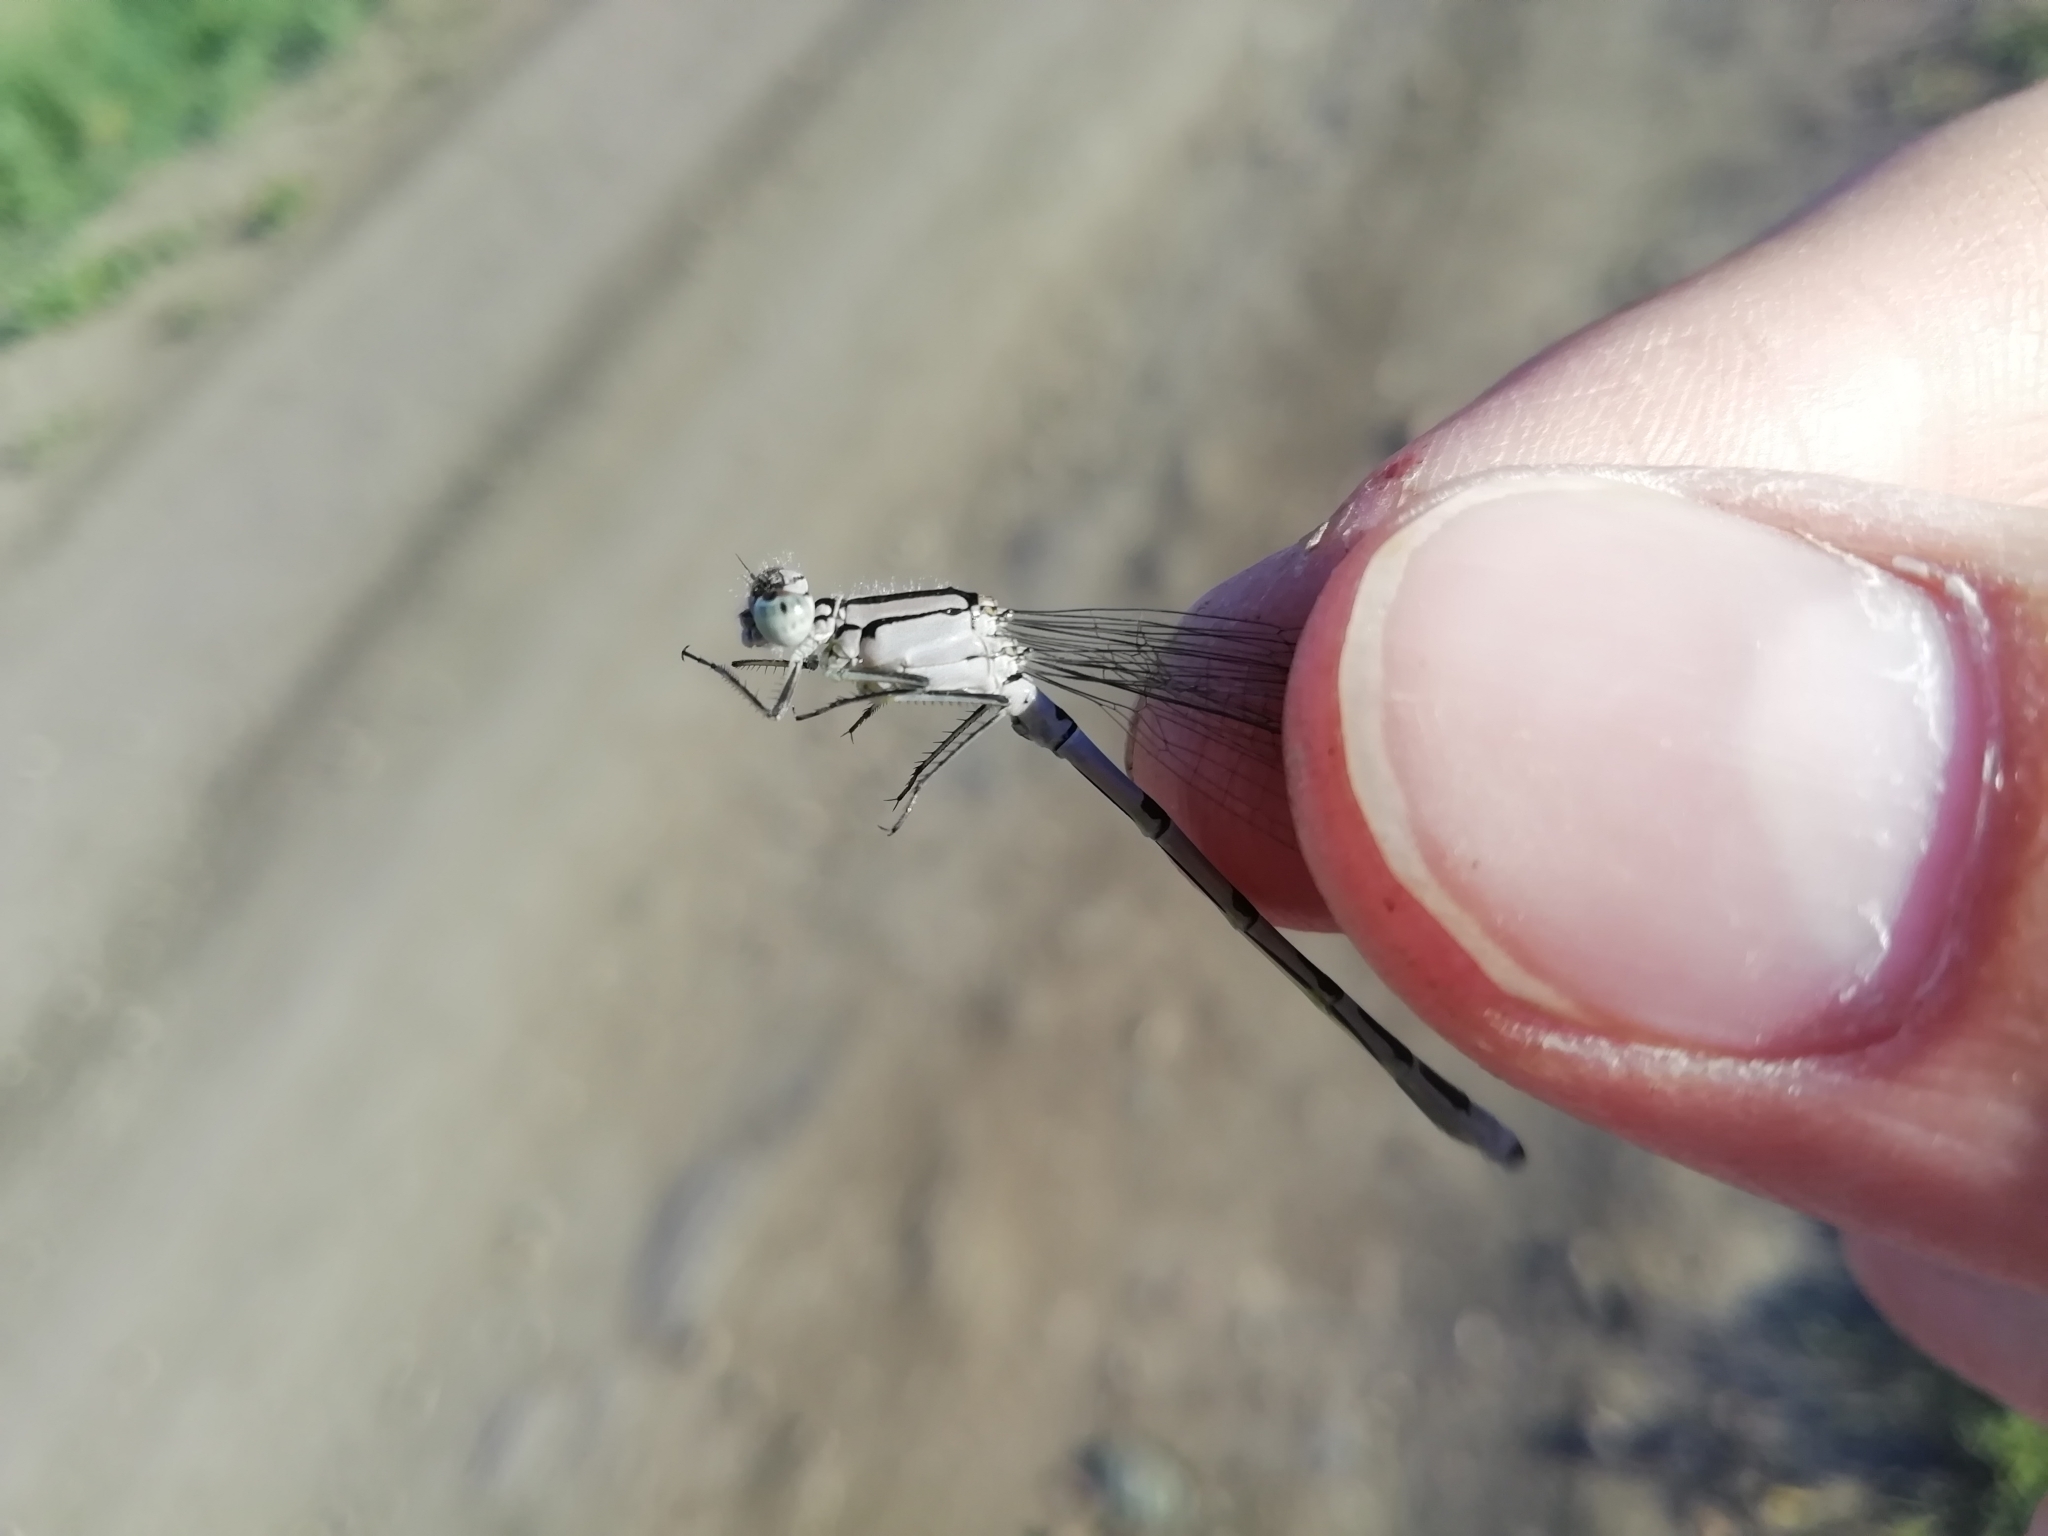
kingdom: Animalia
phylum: Arthropoda
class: Insecta
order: Odonata
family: Coenagrionidae
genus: Enallagma
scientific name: Enallagma cyathigerum
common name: Common blue damselfly
